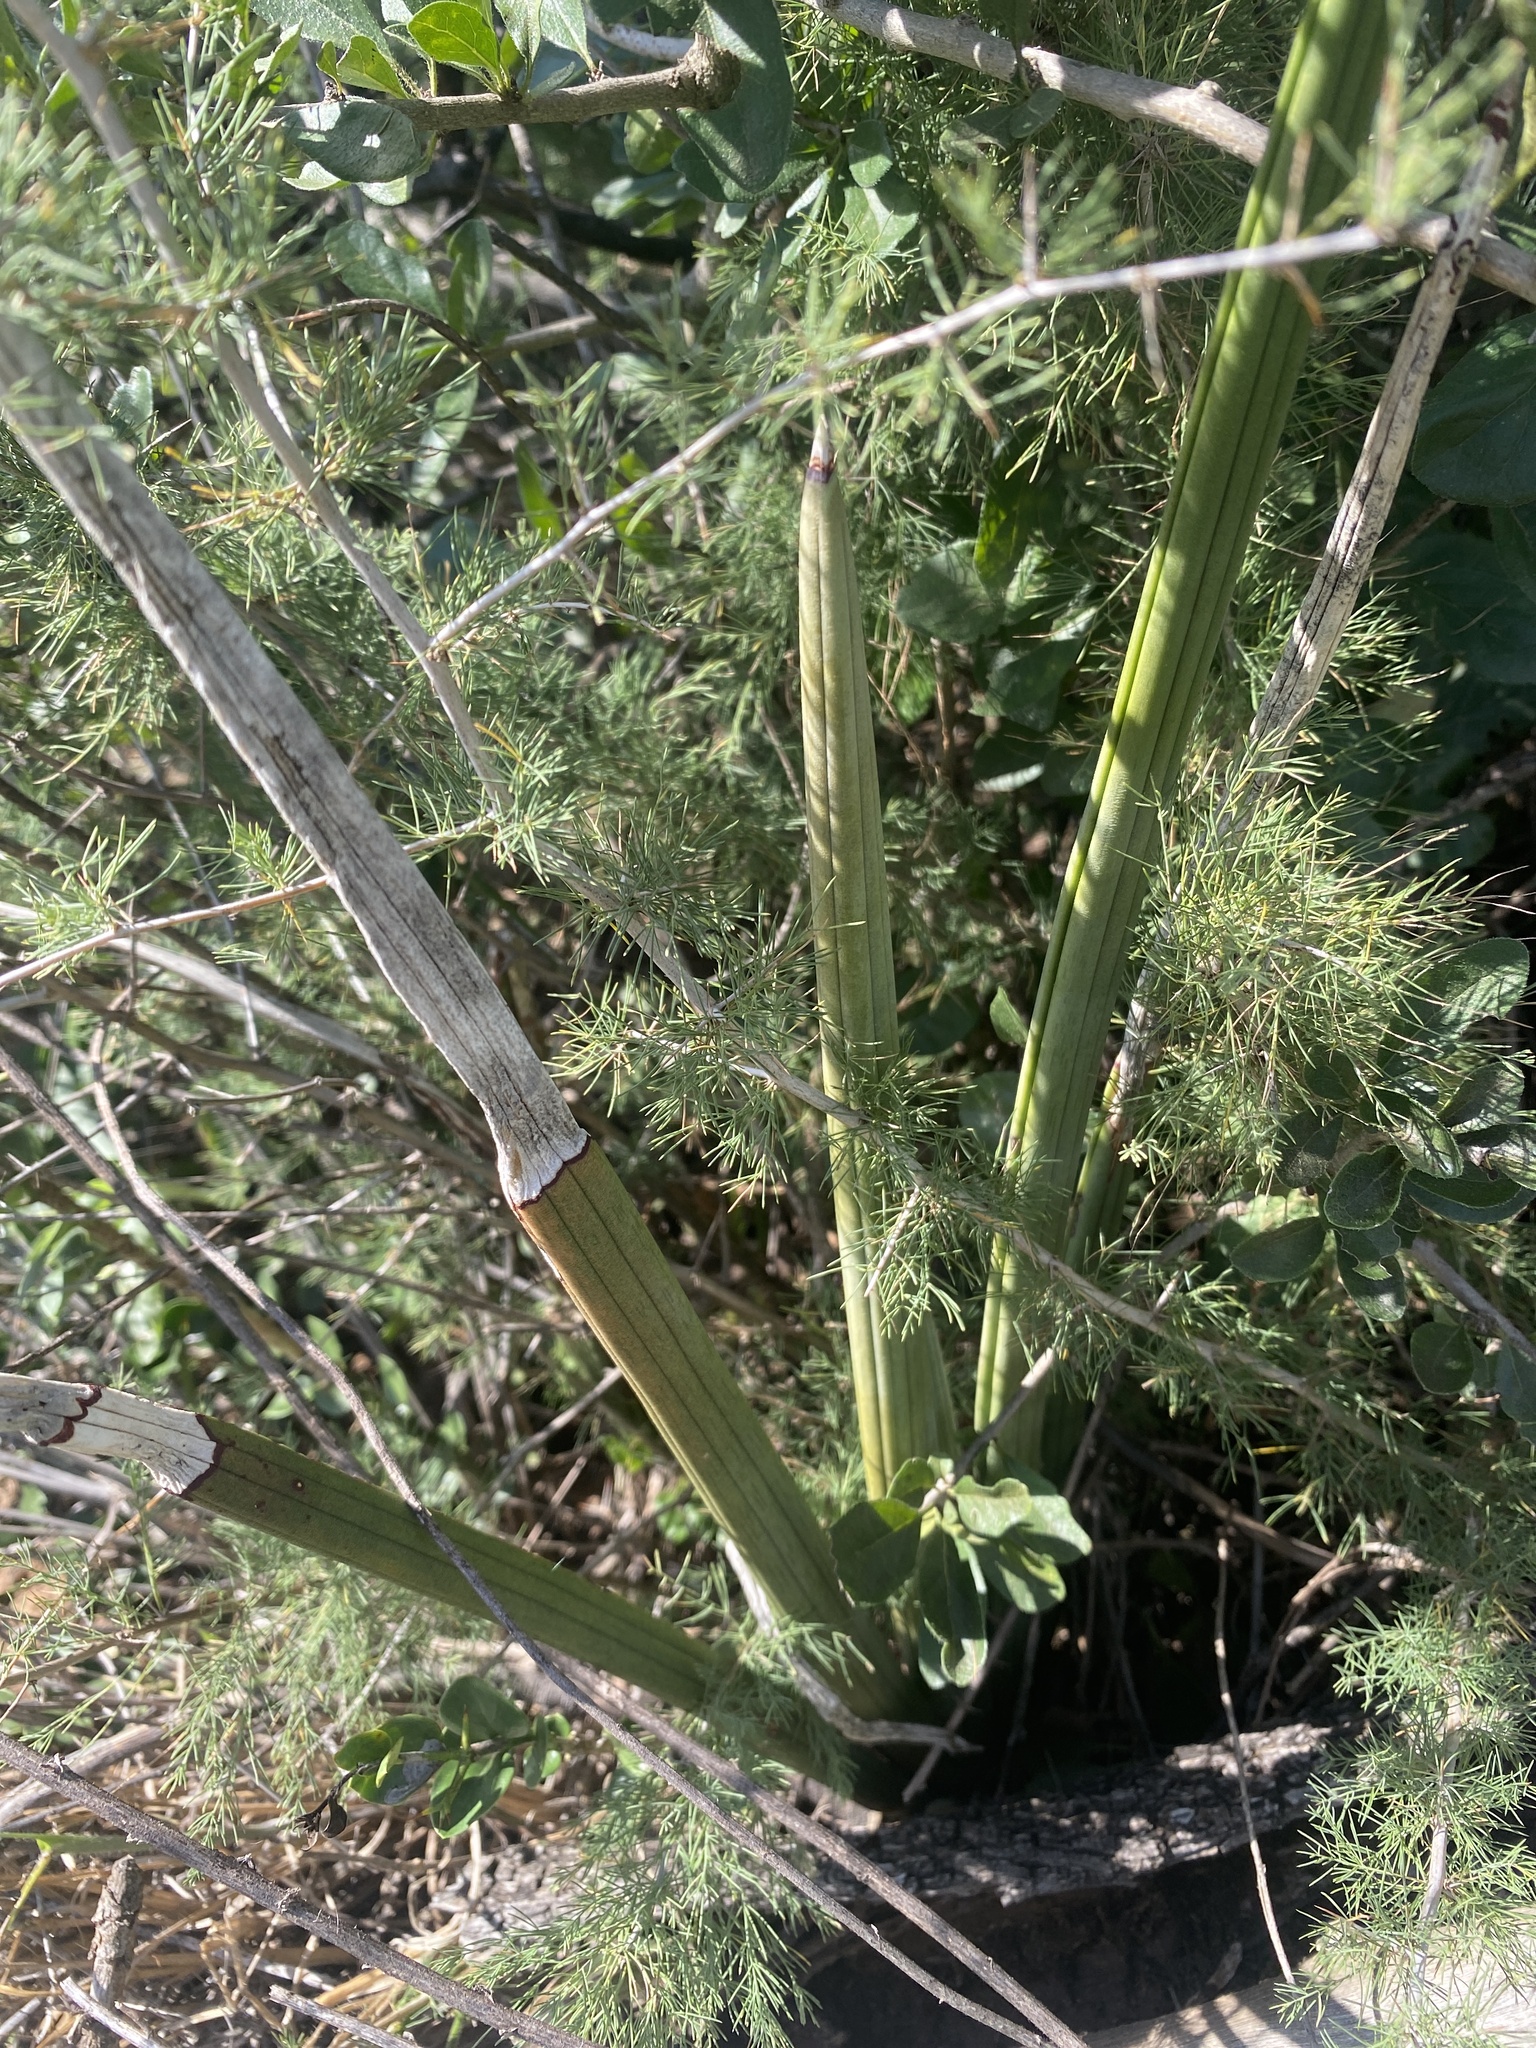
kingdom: Plantae
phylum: Tracheophyta
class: Liliopsida
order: Asparagales
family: Asparagaceae
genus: Dracaena
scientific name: Dracaena pearsonii
